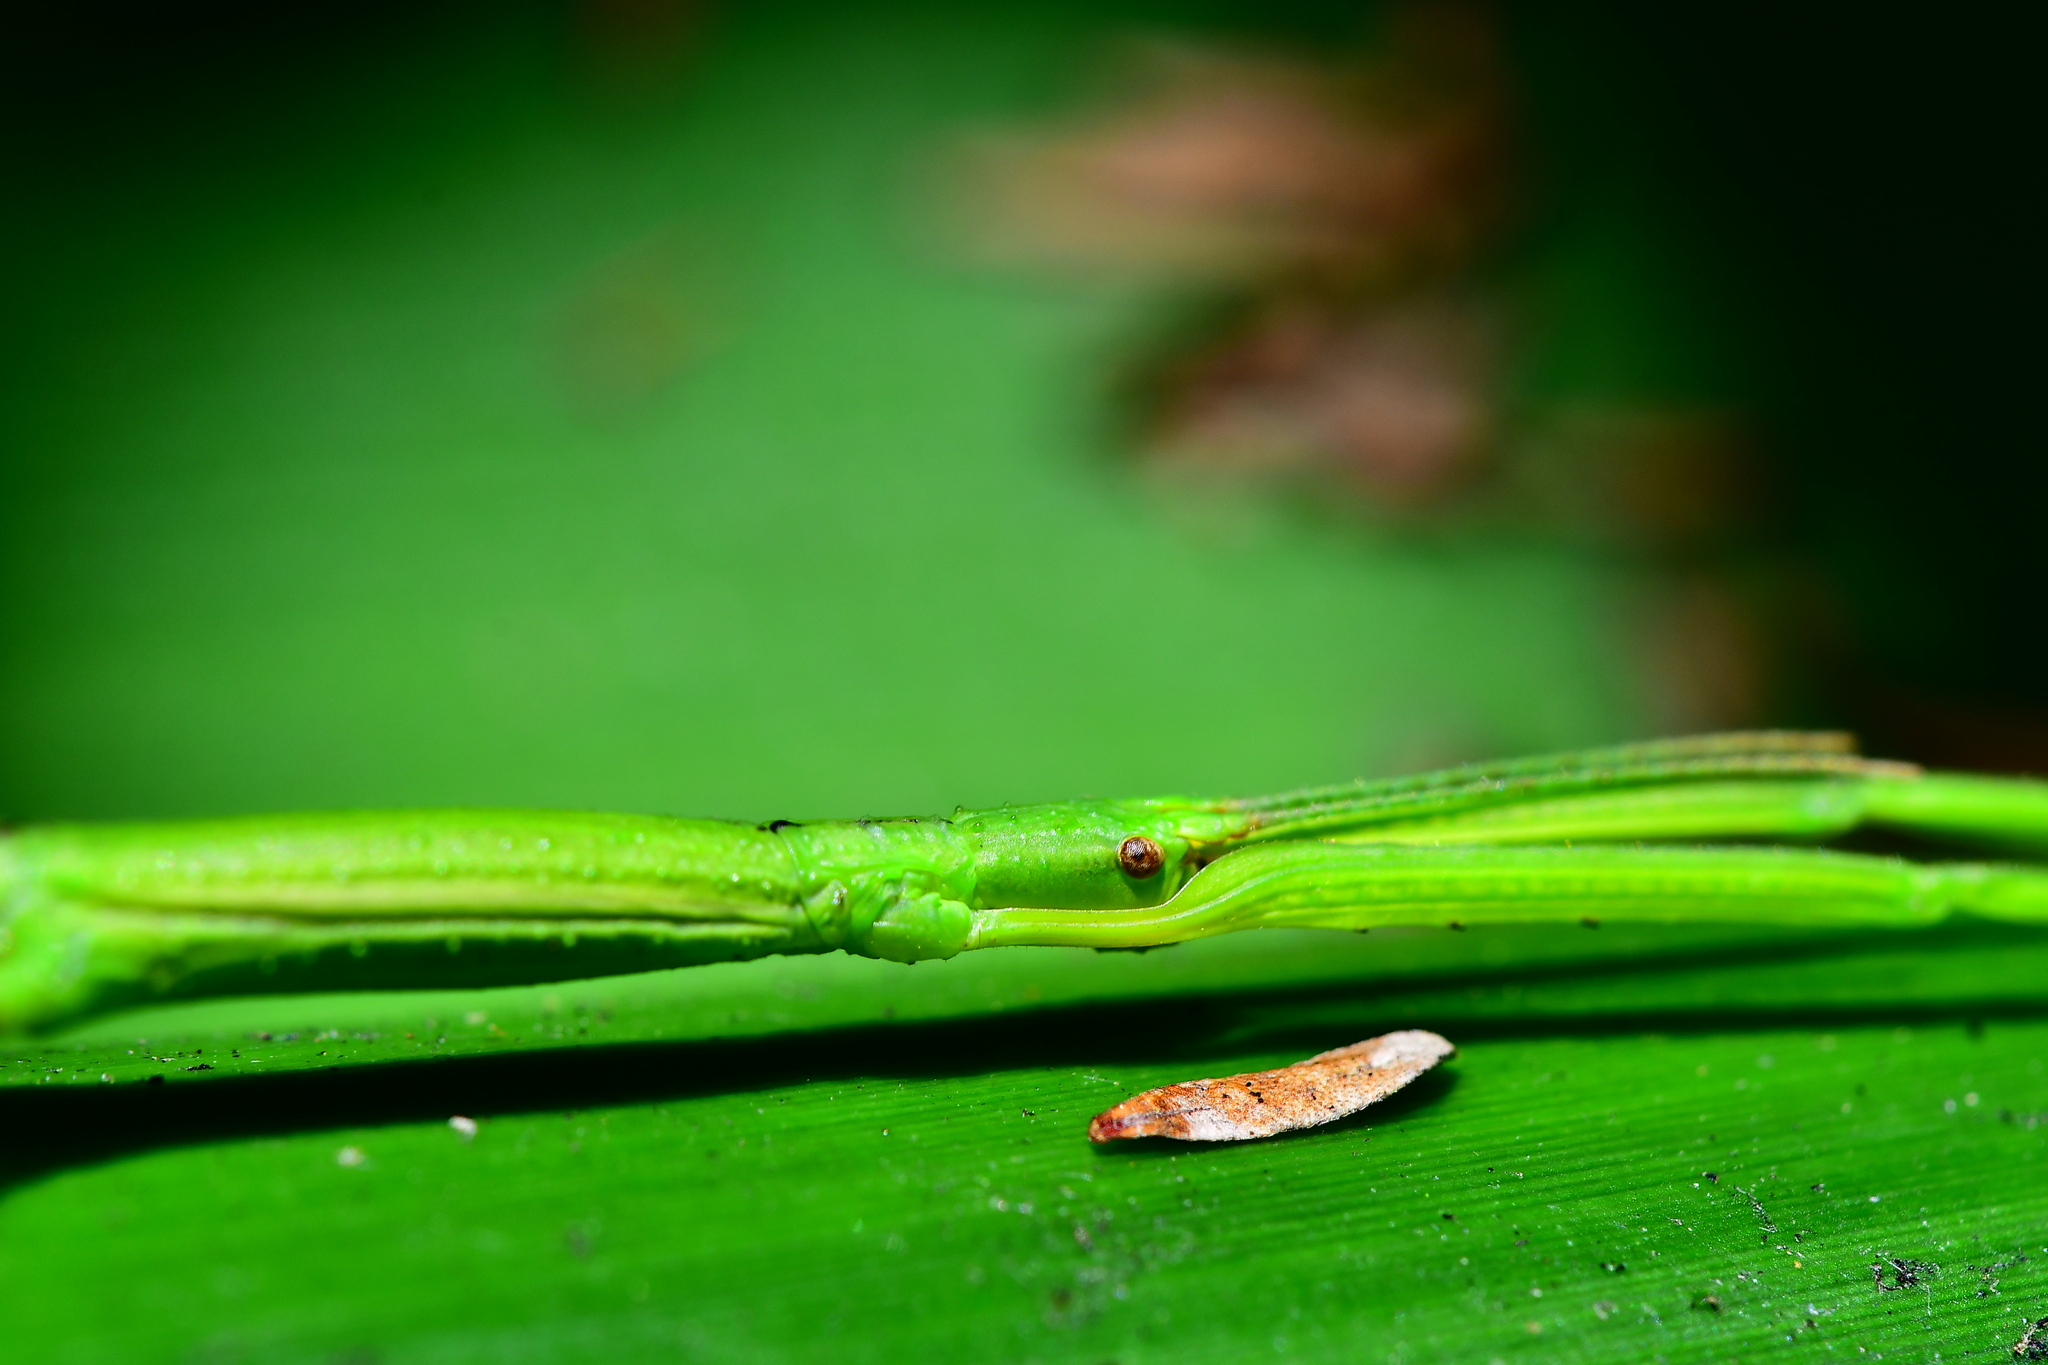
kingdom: Animalia
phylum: Arthropoda
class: Insecta
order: Phasmida
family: Phasmatidae
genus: Clitarchus
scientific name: Clitarchus hookeri
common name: Smooth stick insect
